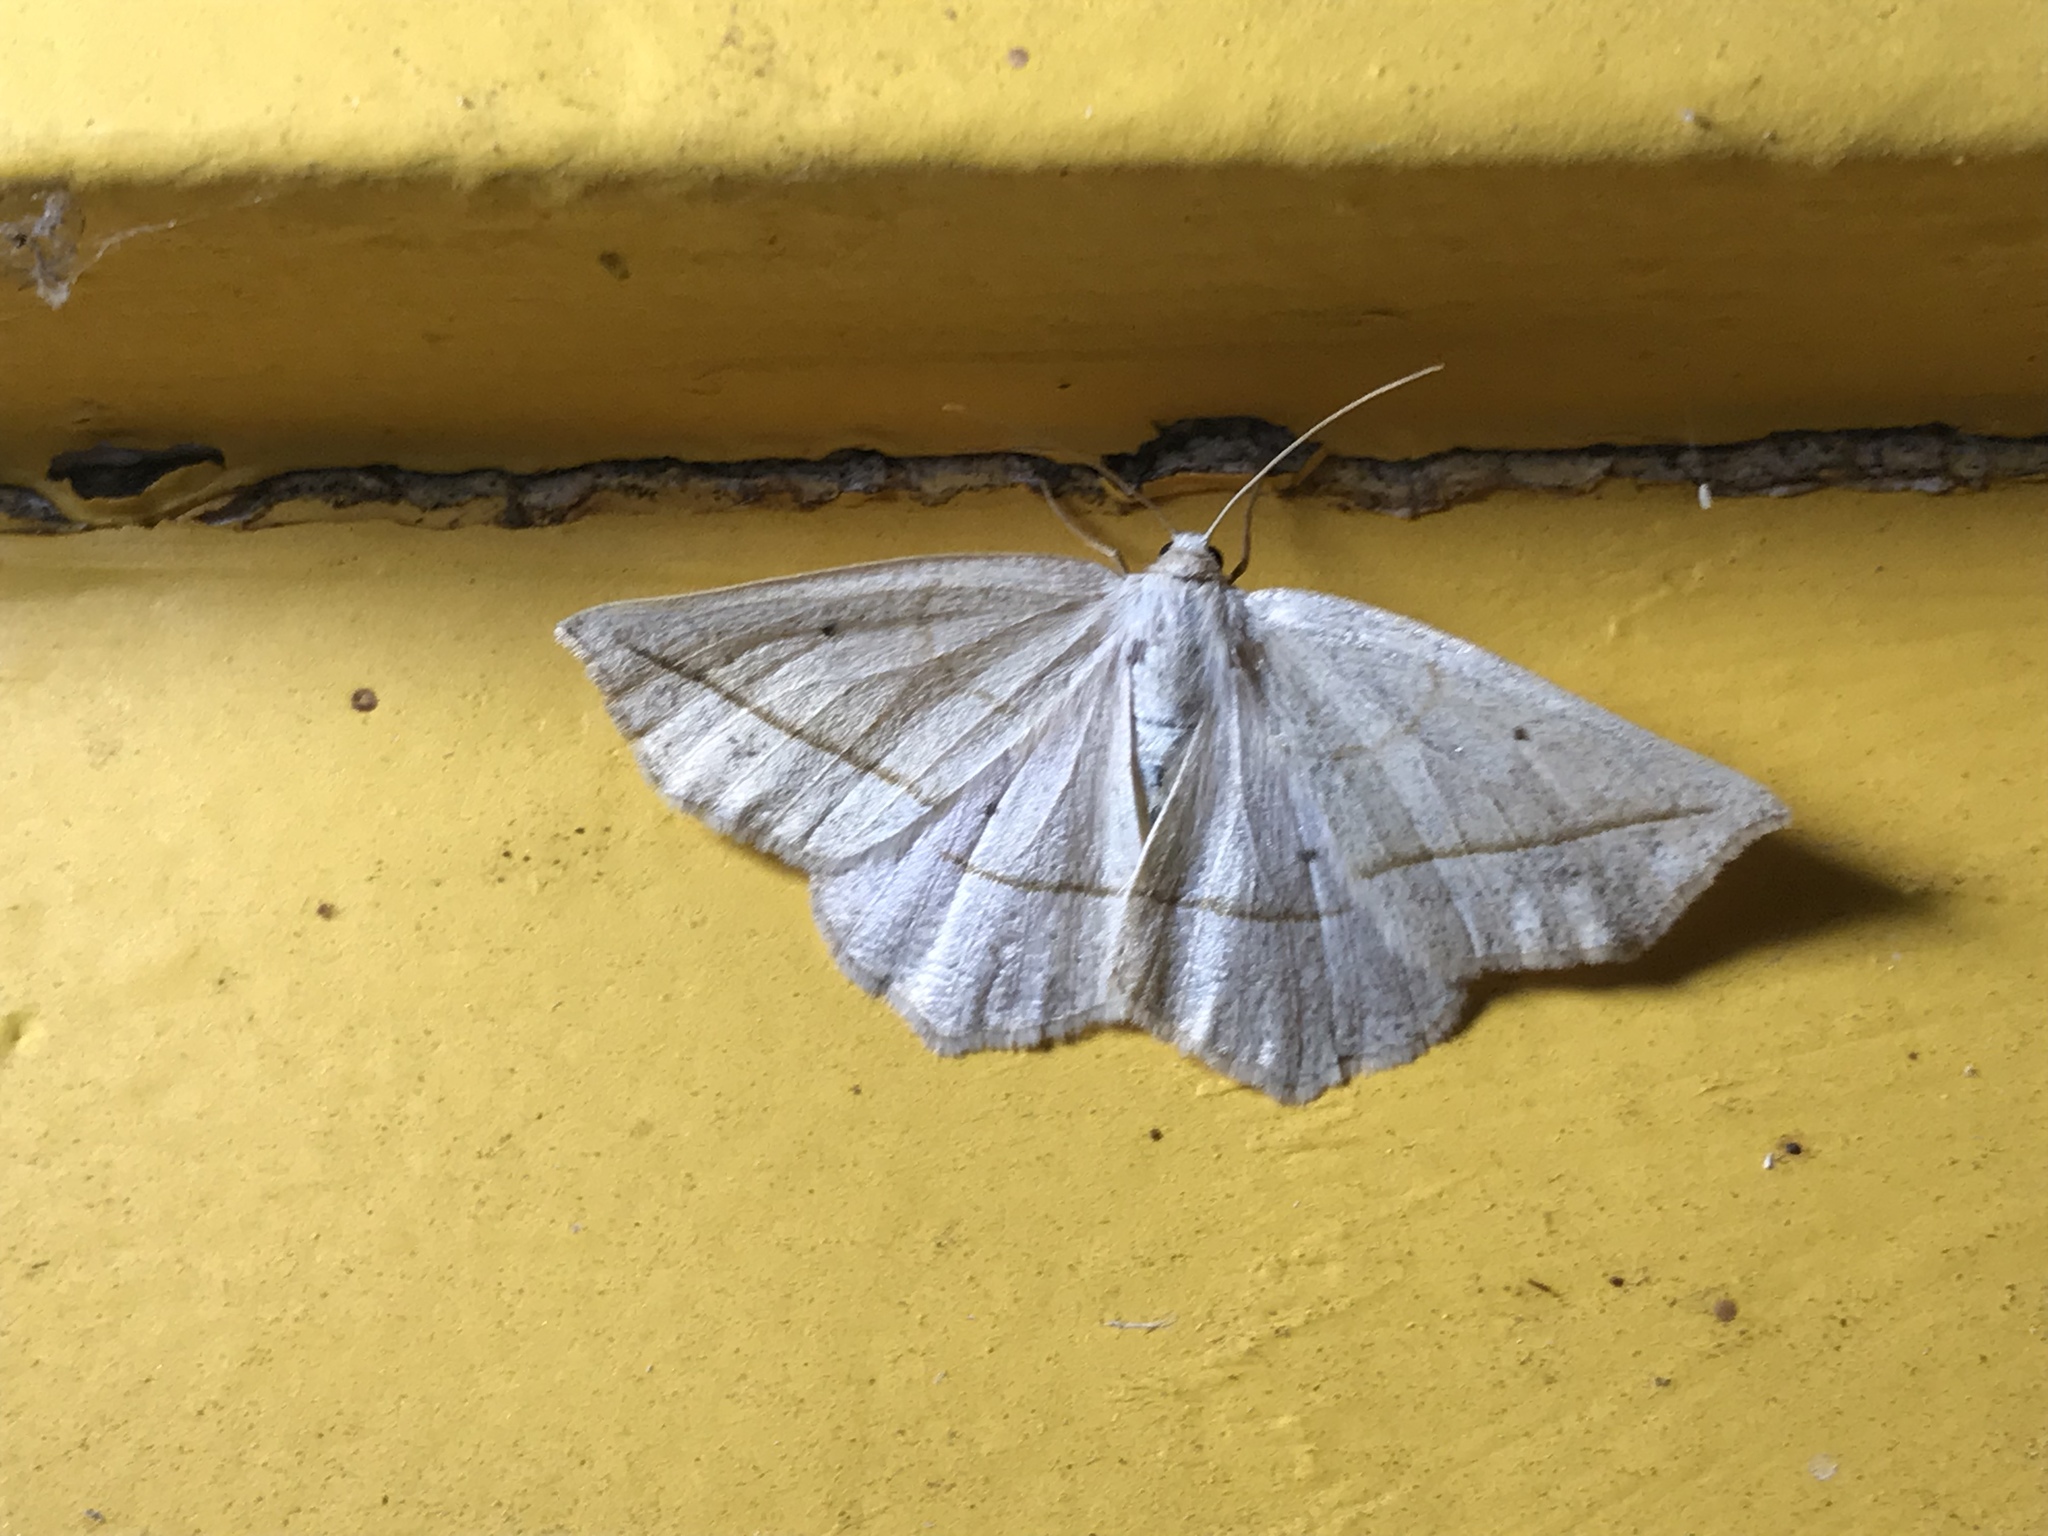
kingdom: Animalia
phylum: Arthropoda
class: Insecta
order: Lepidoptera
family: Geometridae
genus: Eusarca
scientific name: Eusarca confusaria
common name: Confused eusarca
